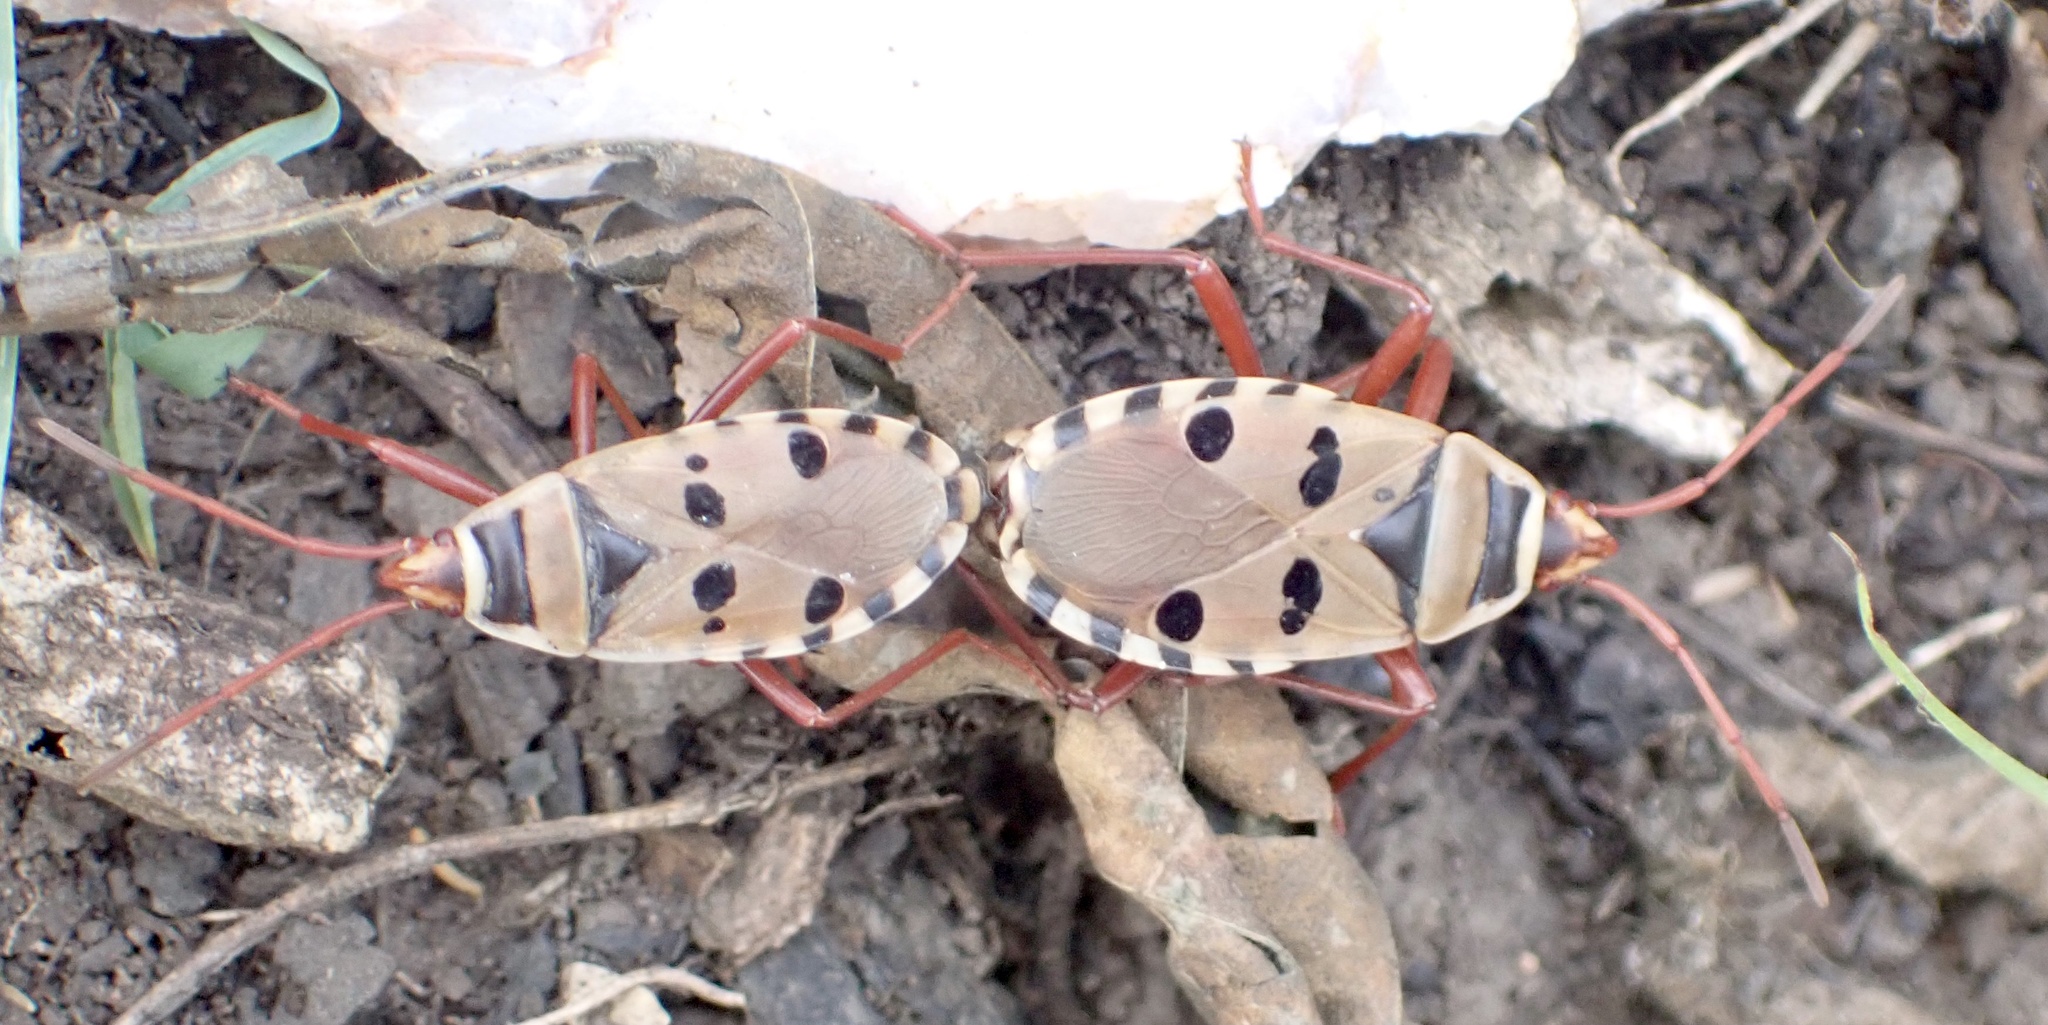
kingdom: Animalia
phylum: Arthropoda
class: Insecta
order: Hemiptera
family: Pyrrhocoridae
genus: Probergrothius
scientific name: Probergrothius sexpunctatus
